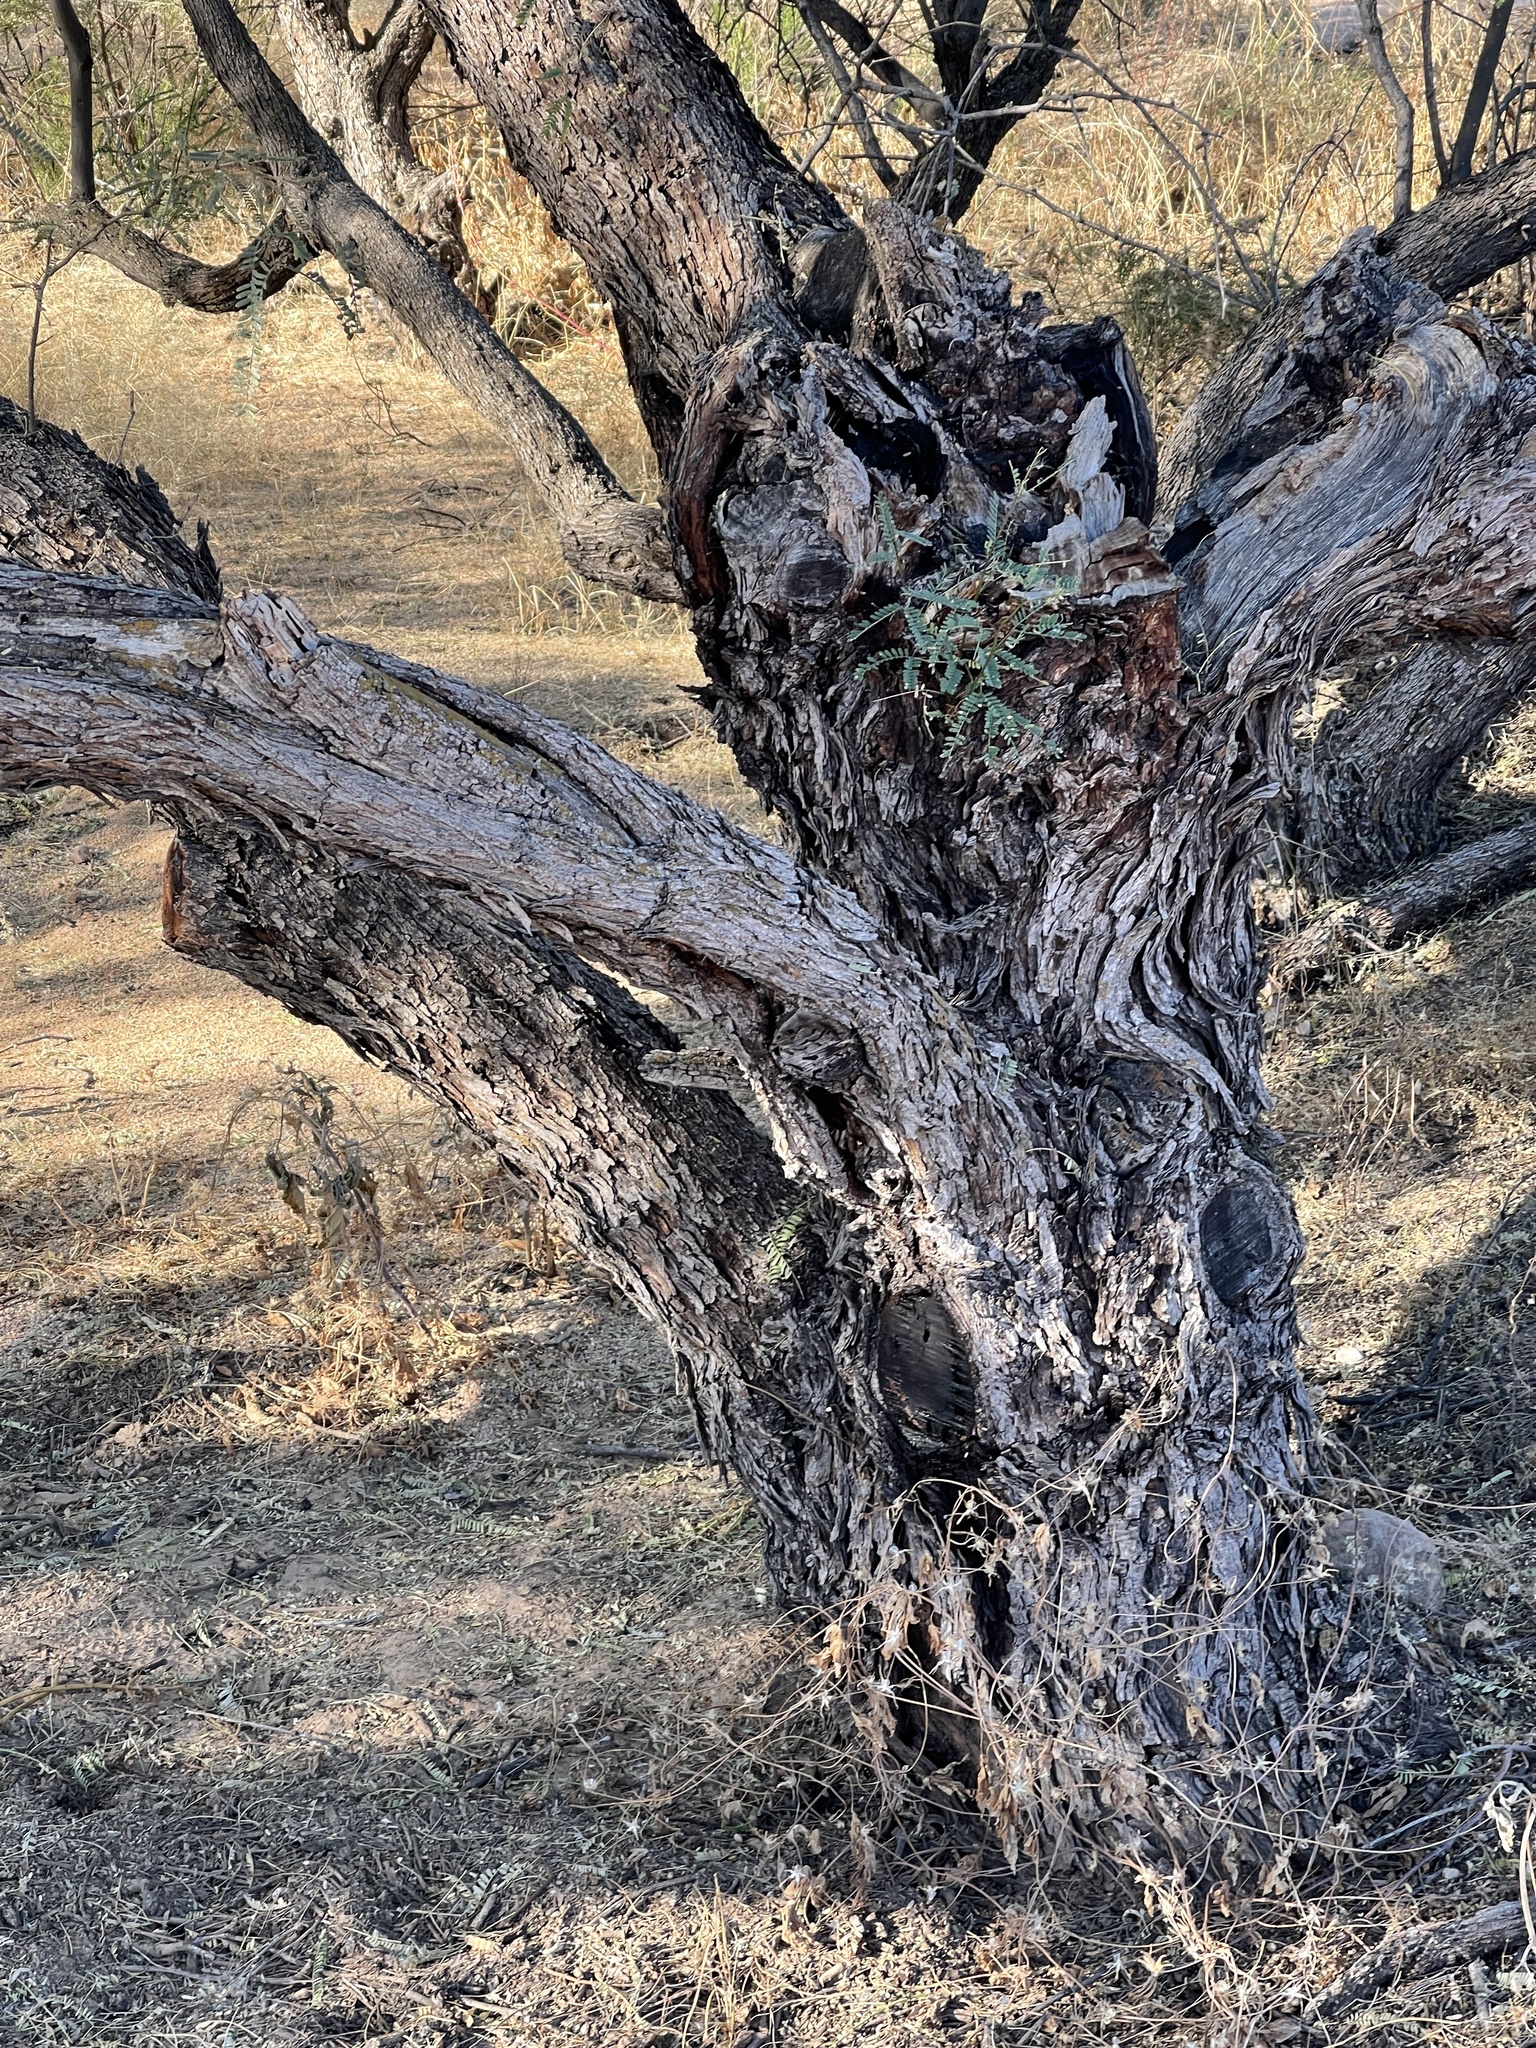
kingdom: Plantae
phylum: Tracheophyta
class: Magnoliopsida
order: Fabales
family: Fabaceae
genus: Prosopis
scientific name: Prosopis velutina
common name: Velvet mesquite
